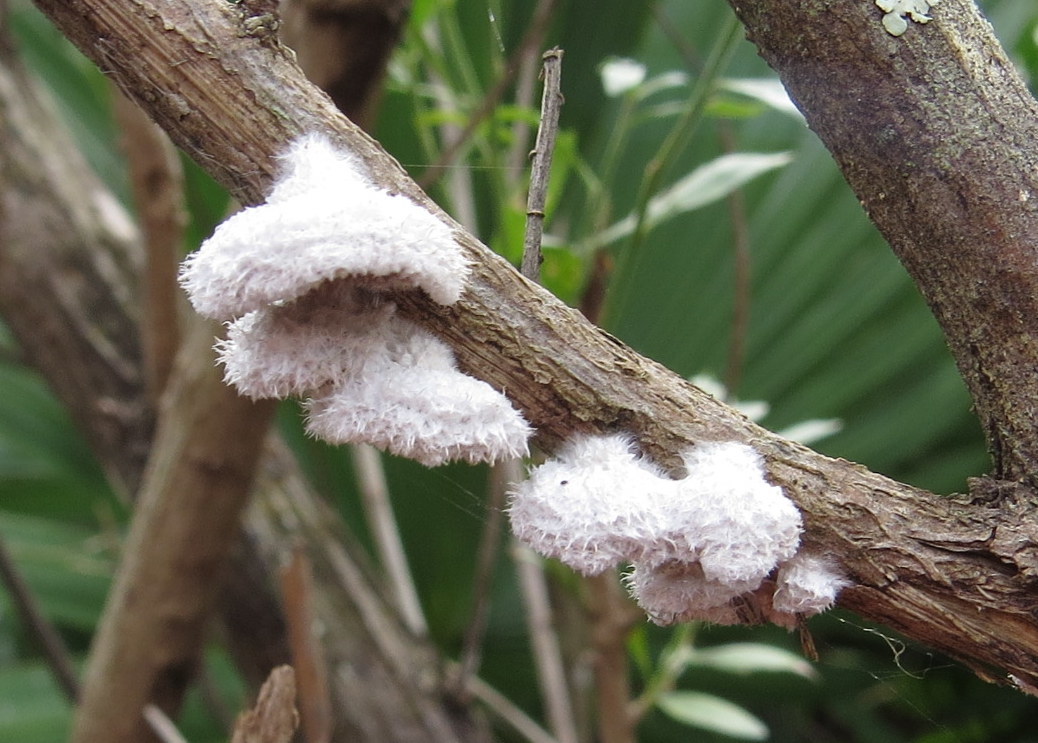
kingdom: Fungi
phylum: Basidiomycota
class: Agaricomycetes
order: Agaricales
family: Schizophyllaceae
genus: Schizophyllum
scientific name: Schizophyllum commune
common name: Common porecrust
